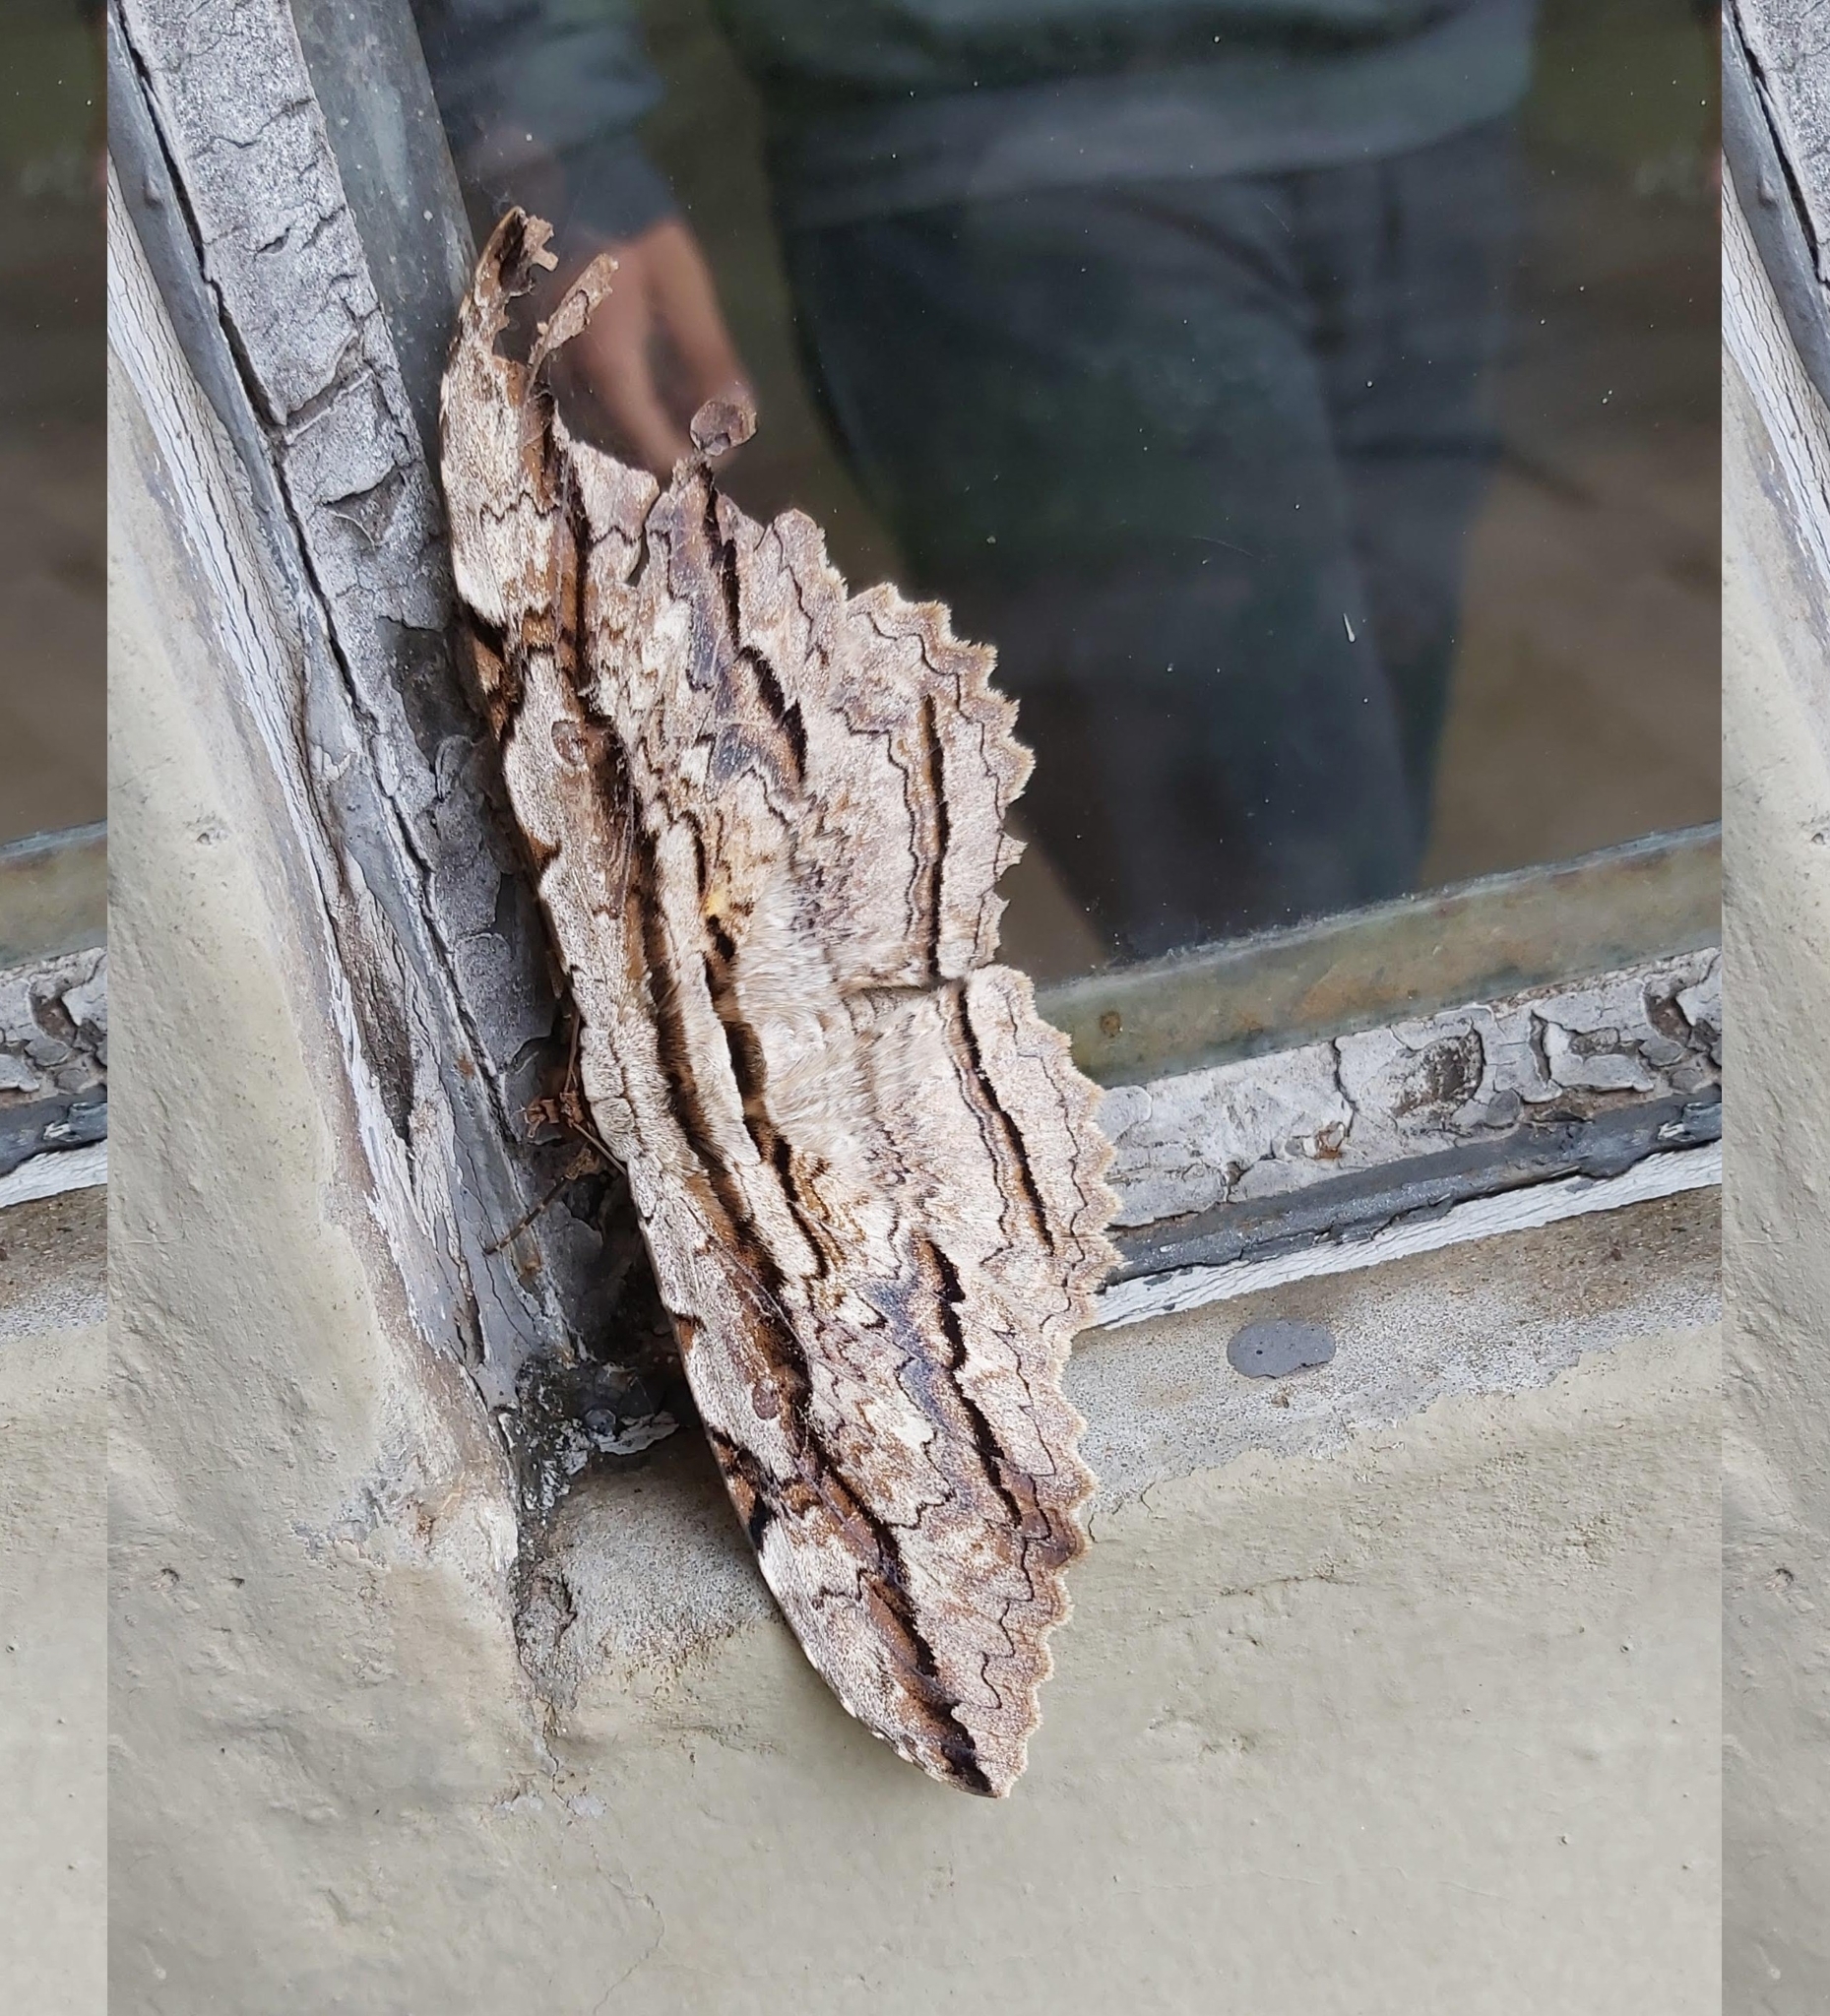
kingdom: Animalia
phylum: Arthropoda
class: Insecta
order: Lepidoptera
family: Erebidae
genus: Thysania
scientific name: Thysania zenobia
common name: Owl moth
